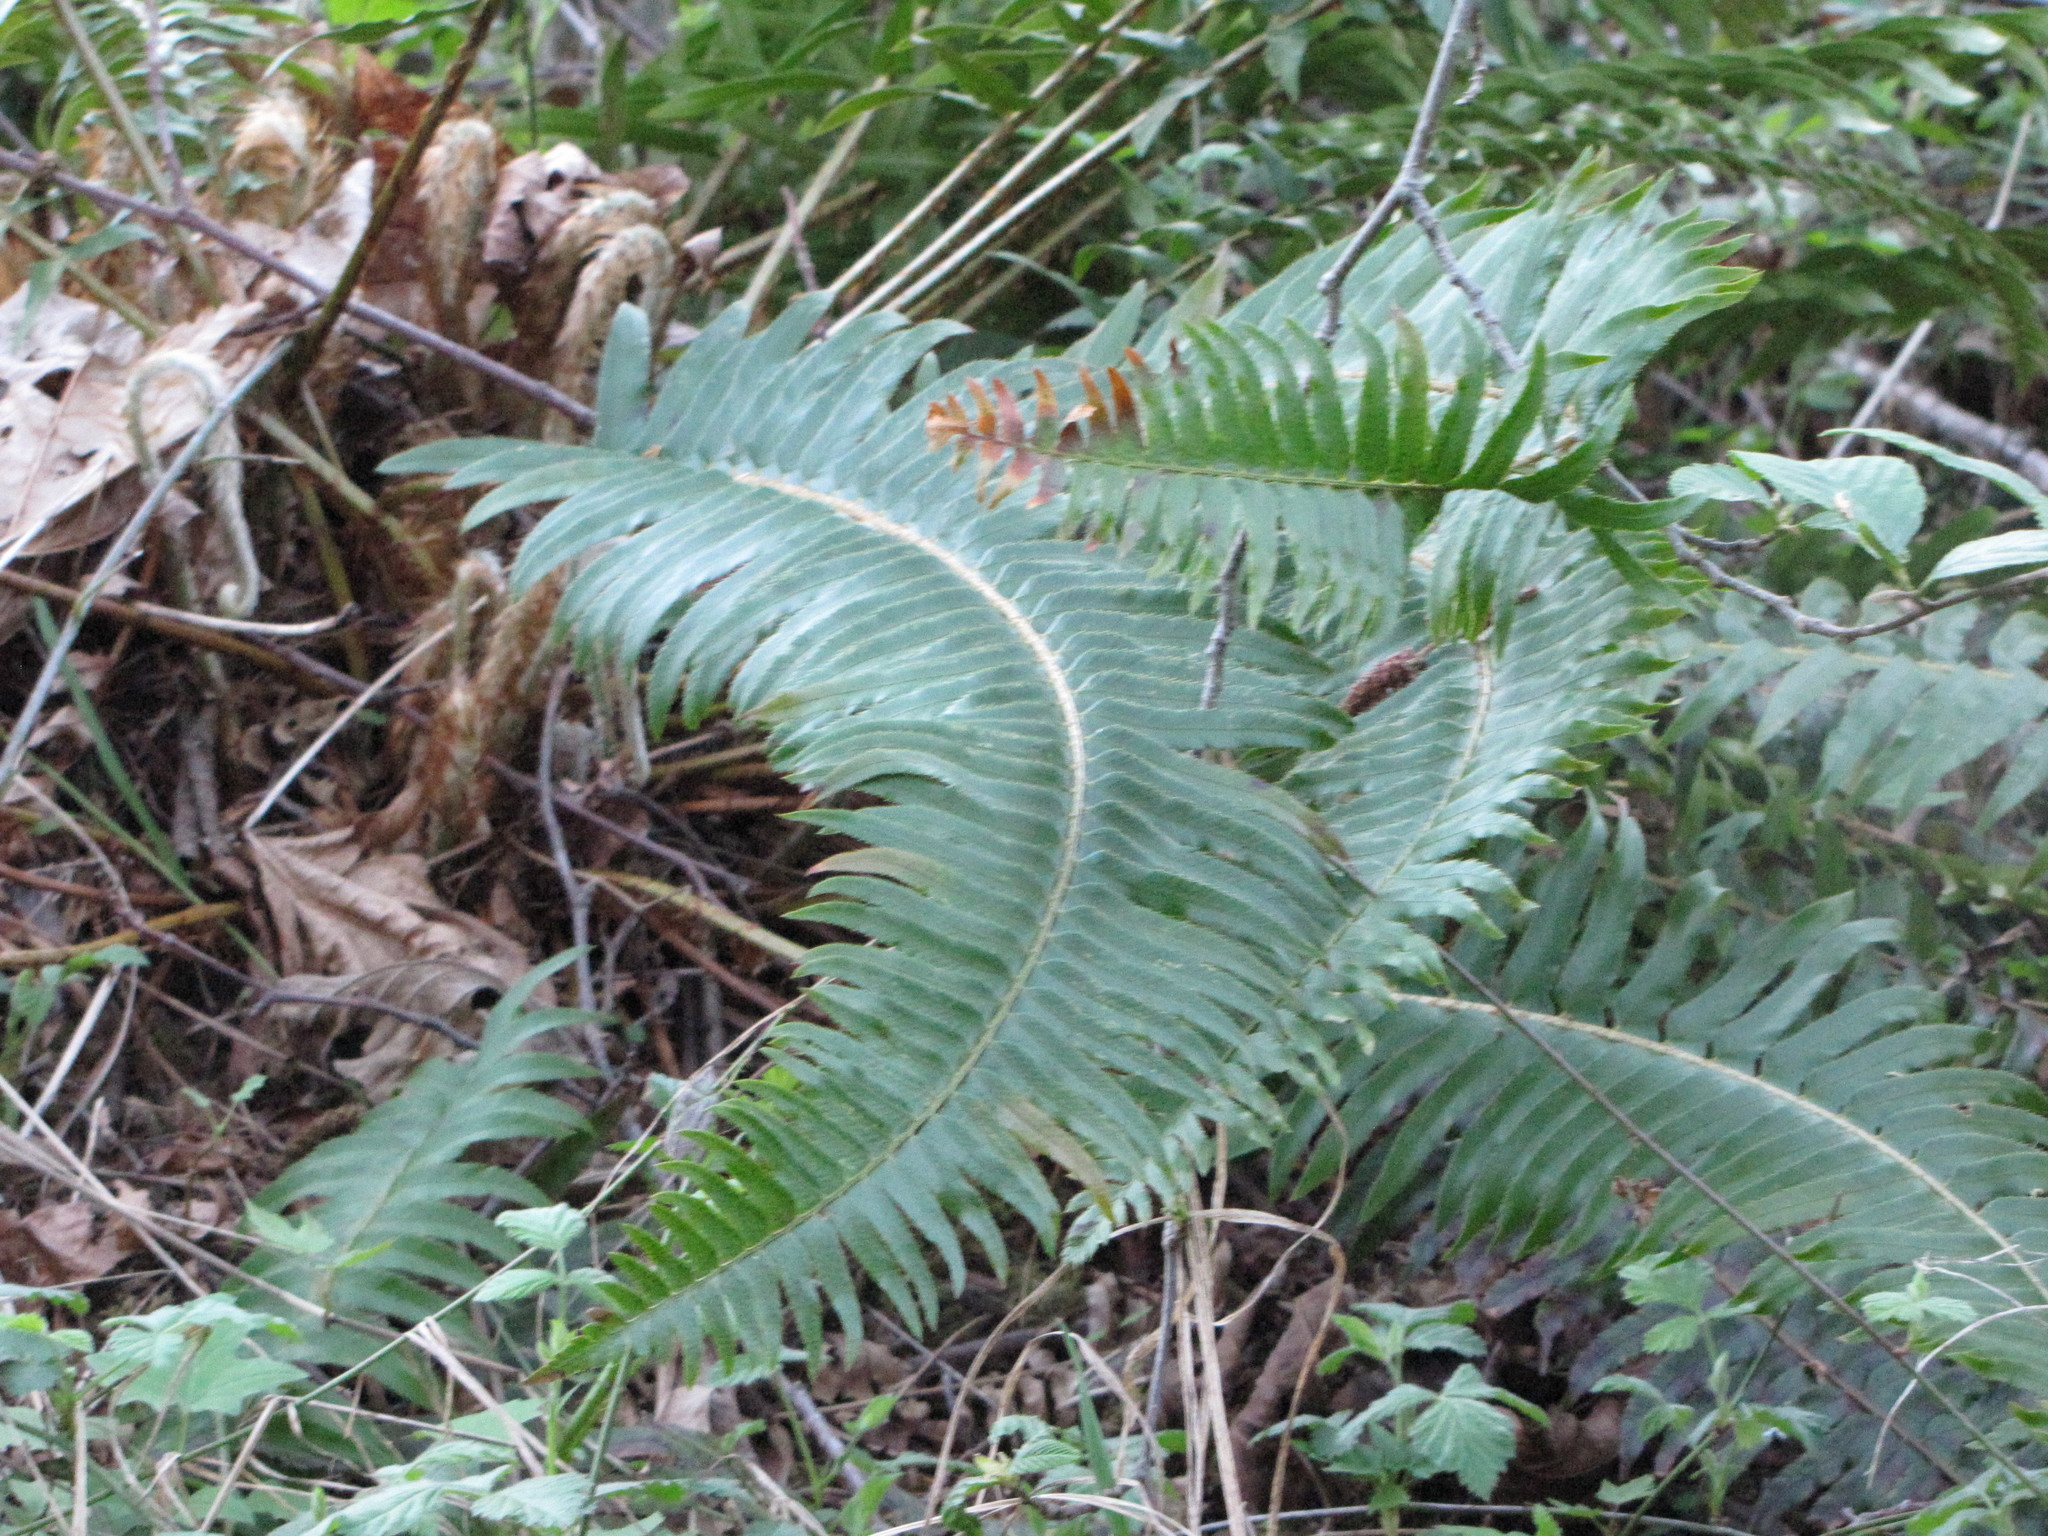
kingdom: Plantae
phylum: Tracheophyta
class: Polypodiopsida
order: Polypodiales
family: Dryopteridaceae
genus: Polystichum
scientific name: Polystichum munitum
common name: Western sword-fern
